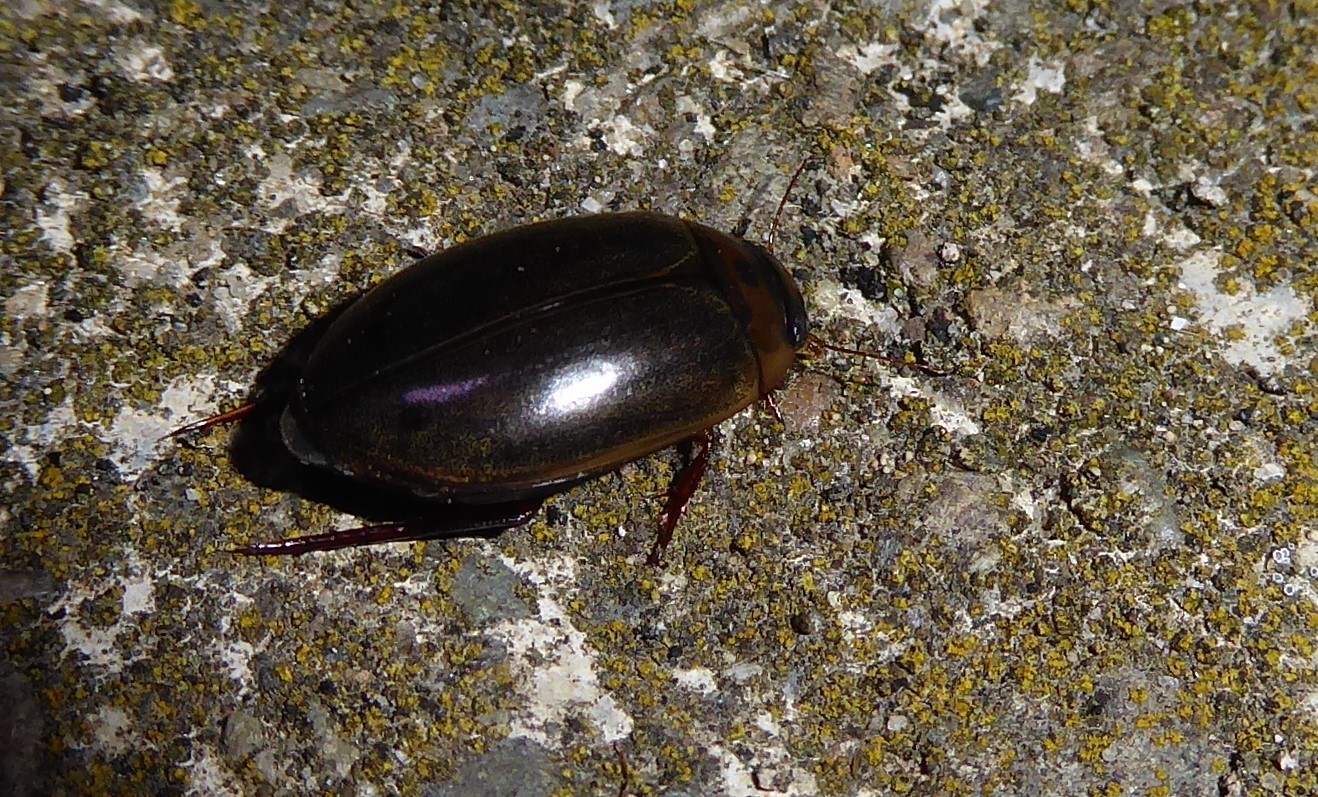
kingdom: Animalia
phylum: Arthropoda
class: Insecta
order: Coleoptera
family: Dytiscidae
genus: Rhantus
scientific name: Rhantus suturalis
